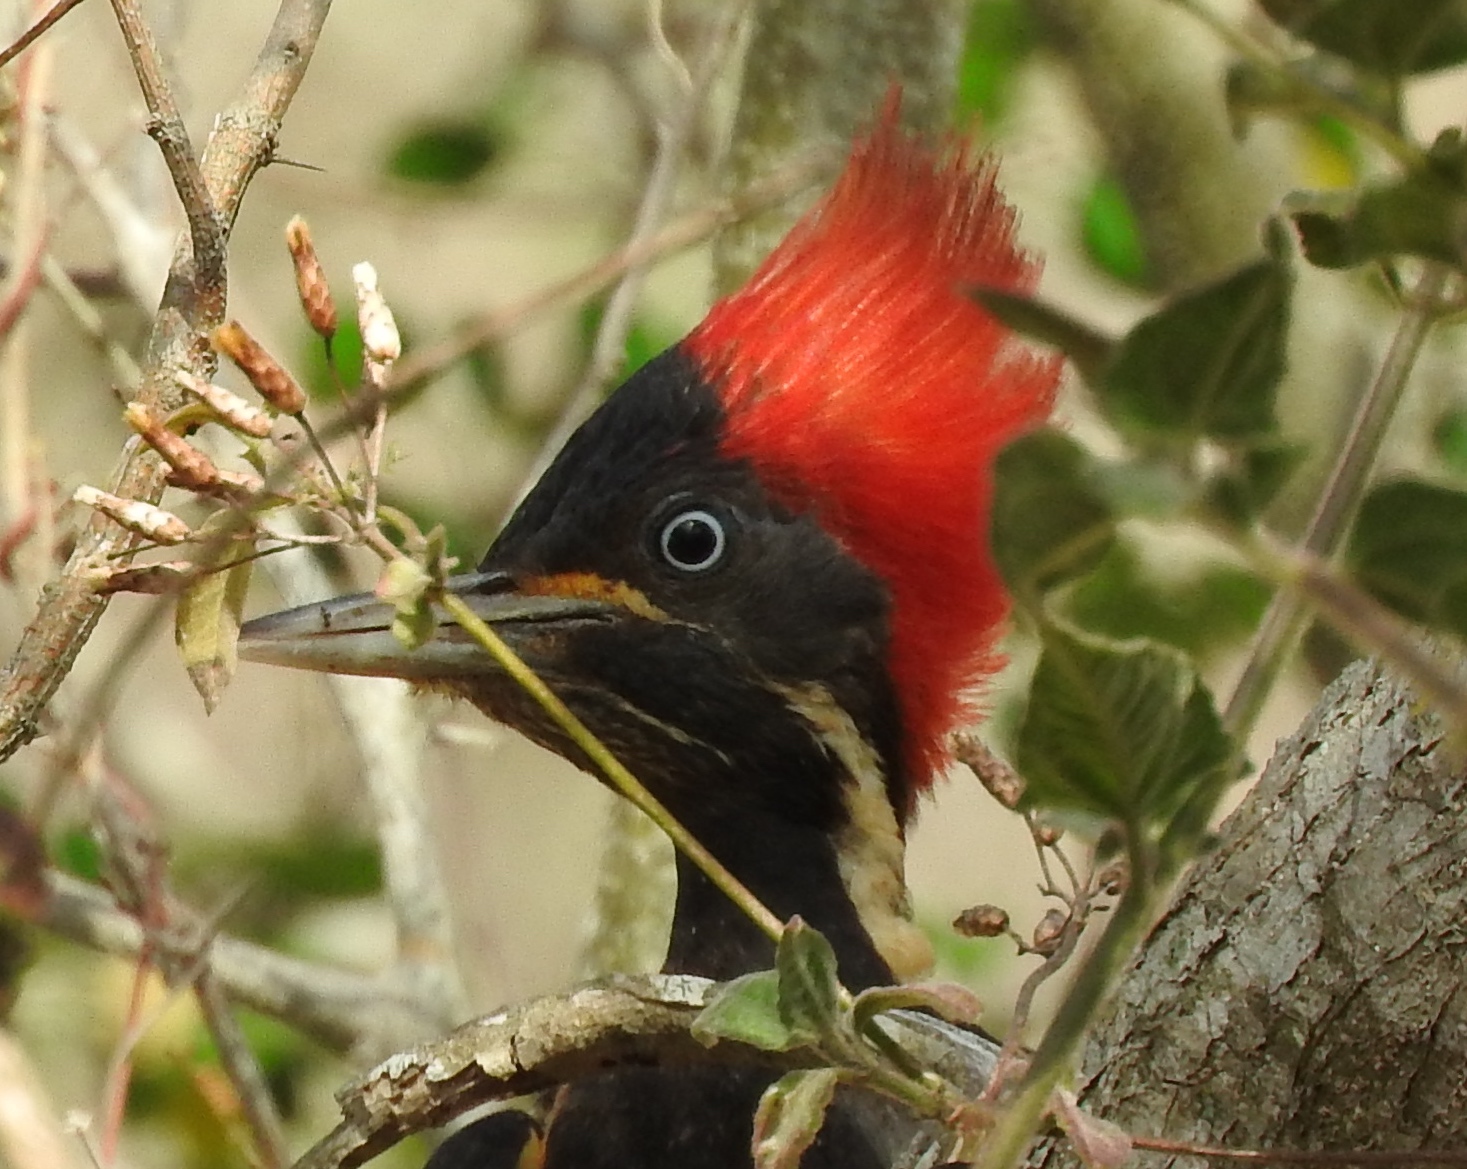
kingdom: Animalia
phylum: Chordata
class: Aves
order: Piciformes
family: Picidae
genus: Dryocopus
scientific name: Dryocopus lineatus
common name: Lineated woodpecker
